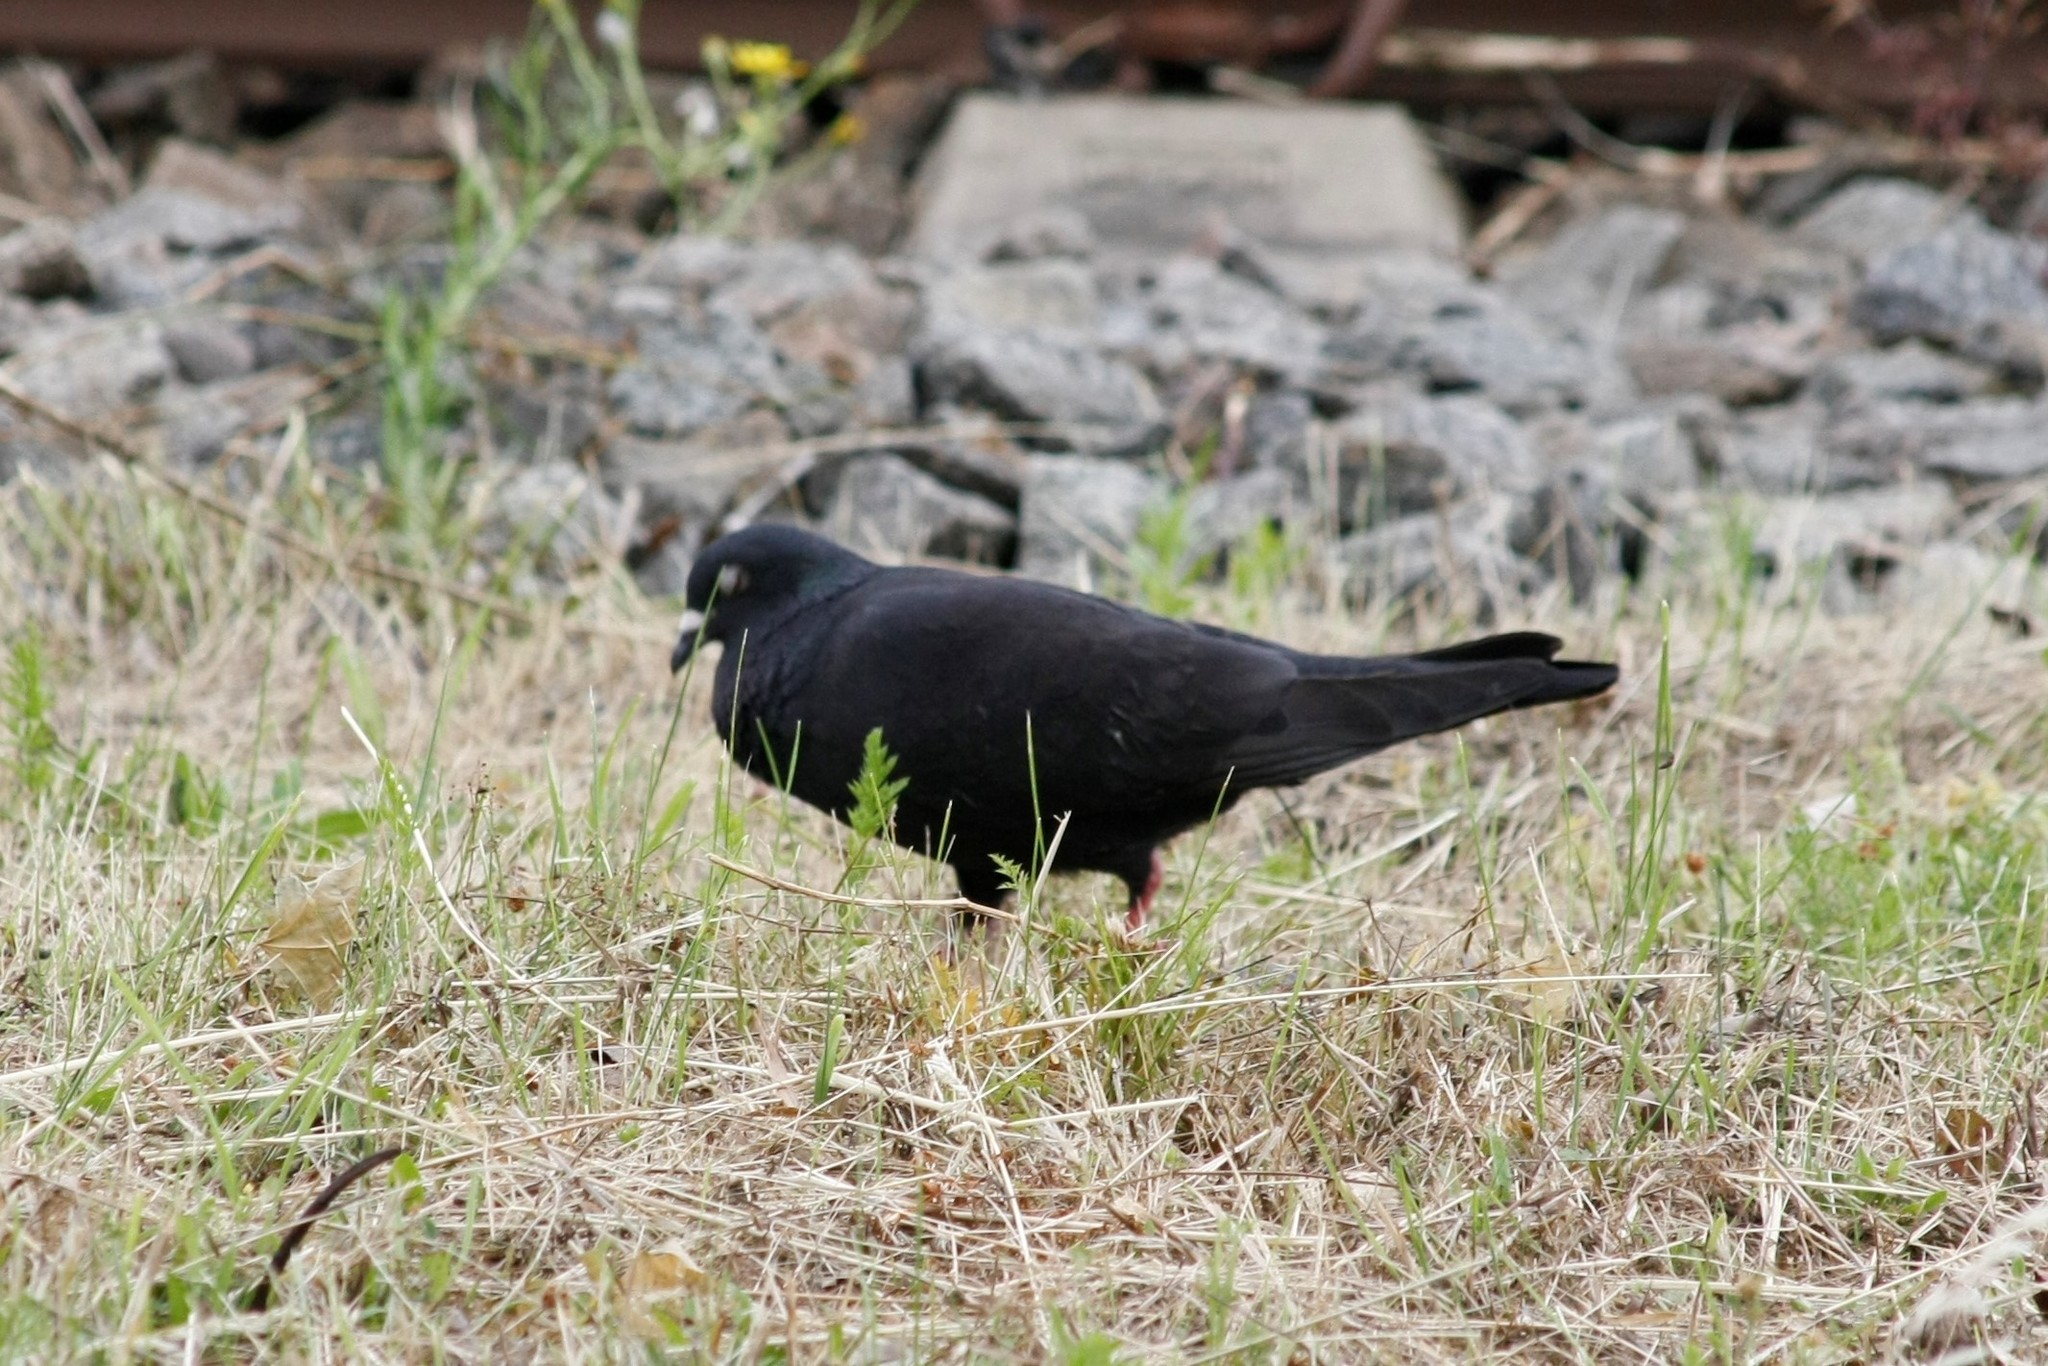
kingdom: Animalia
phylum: Chordata
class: Aves
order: Columbiformes
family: Columbidae
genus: Columba
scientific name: Columba livia
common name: Rock pigeon
